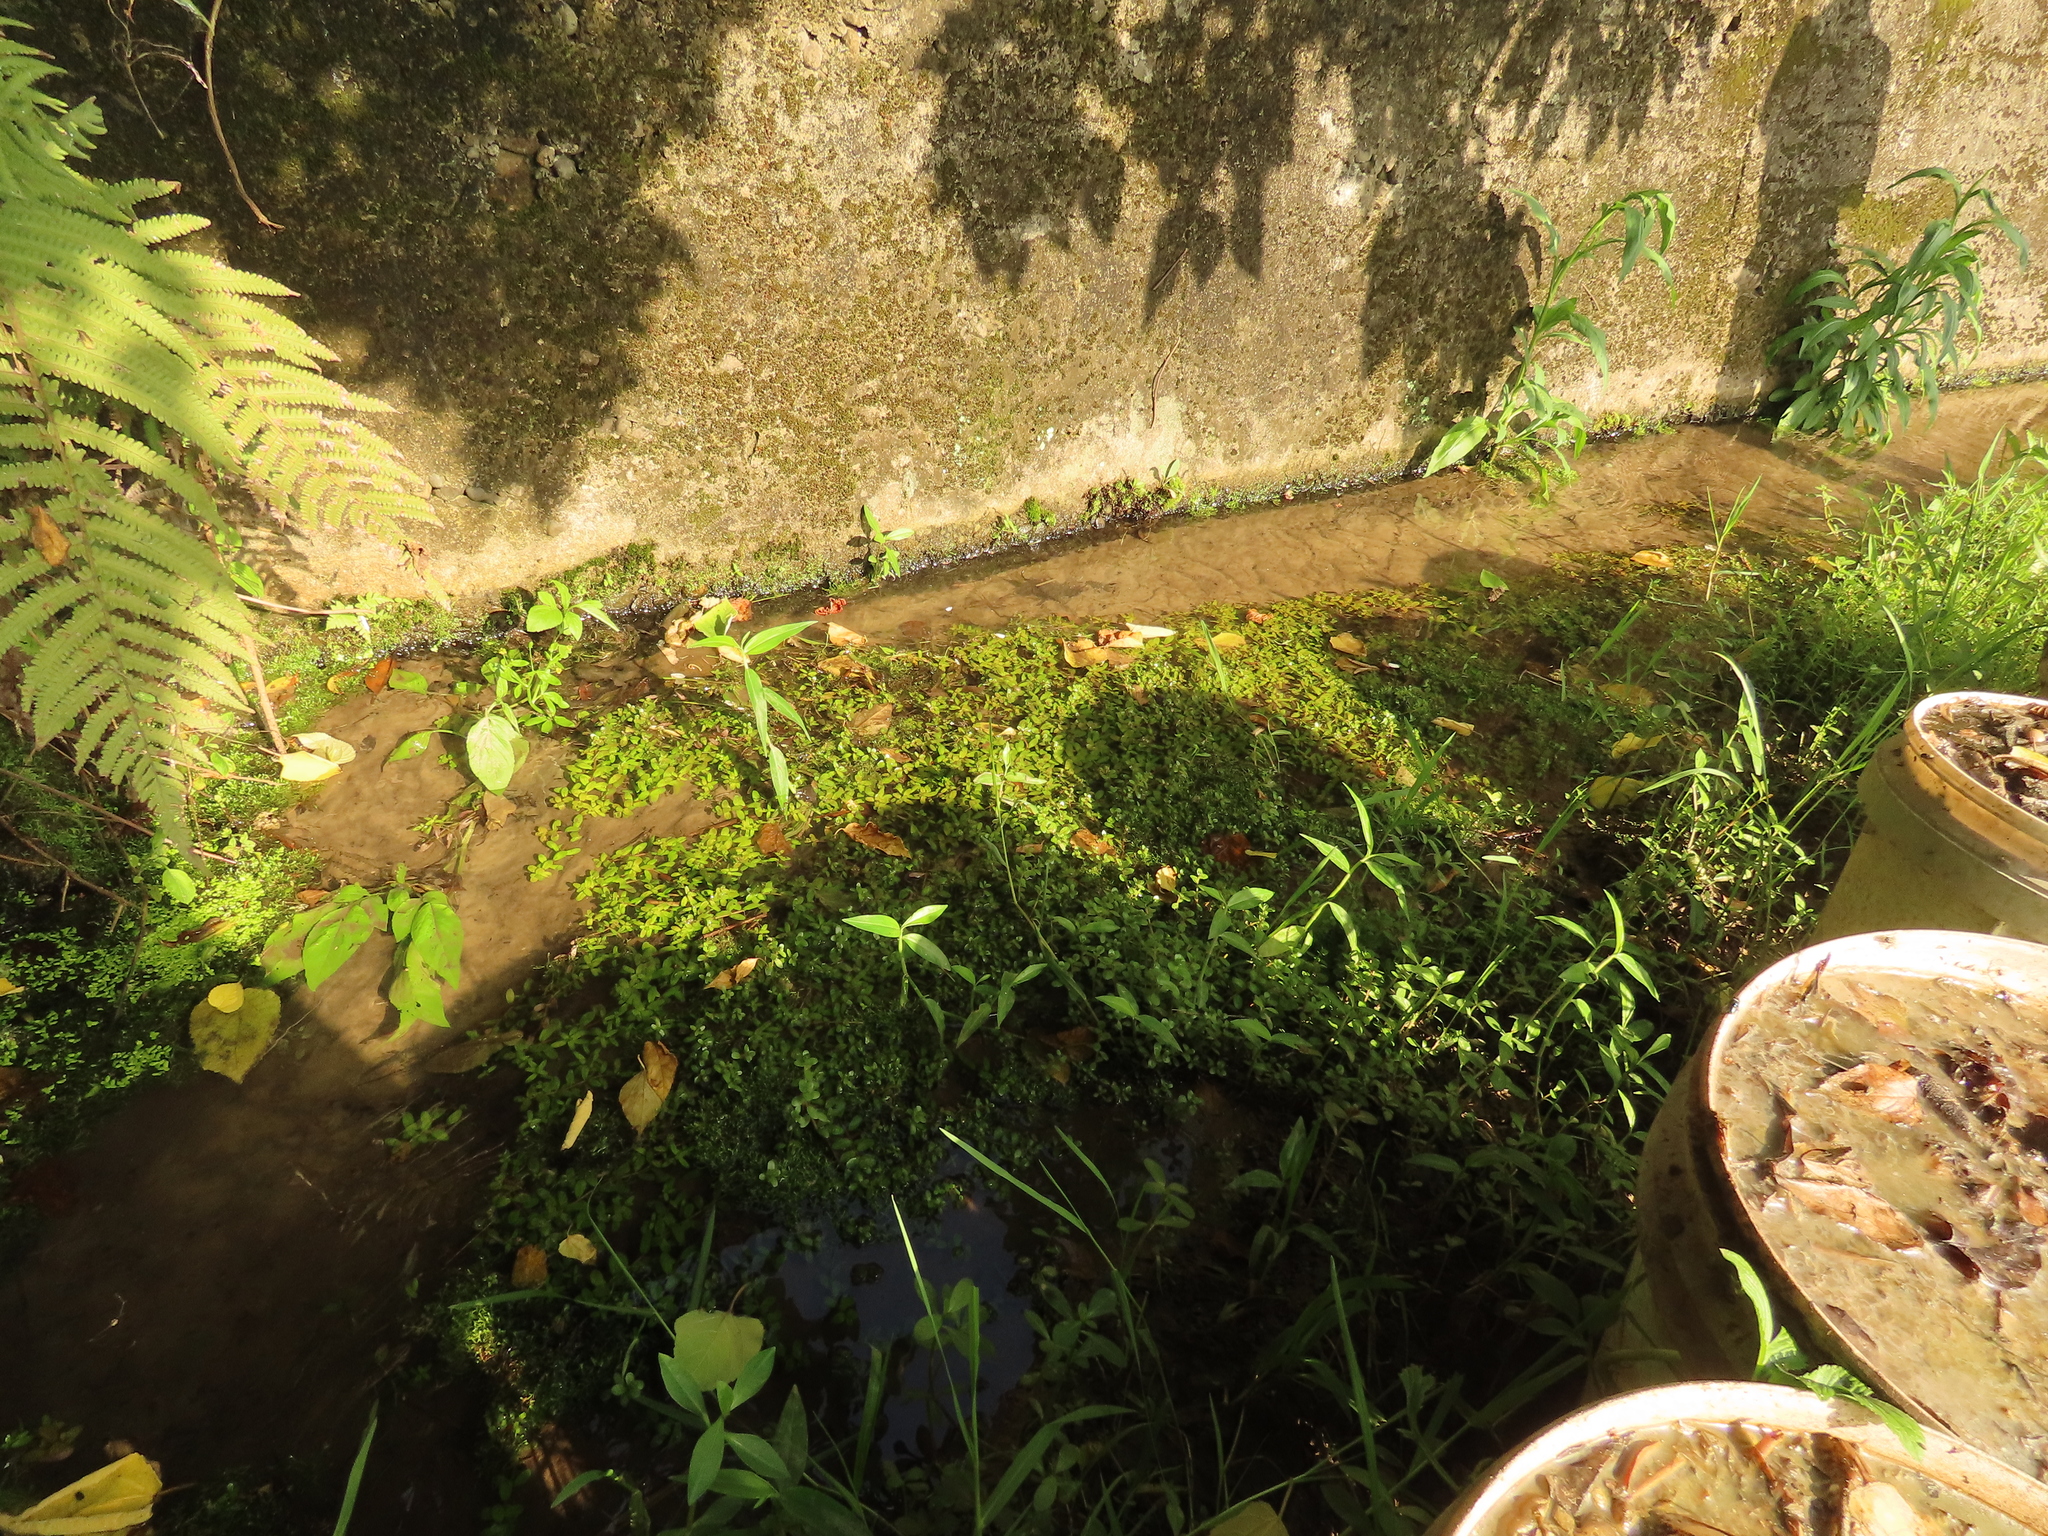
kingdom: Plantae
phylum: Tracheophyta
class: Magnoliopsida
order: Myrtales
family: Lythraceae
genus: Rotala
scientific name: Rotala rotundifolia
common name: Roundleaf toothcup
